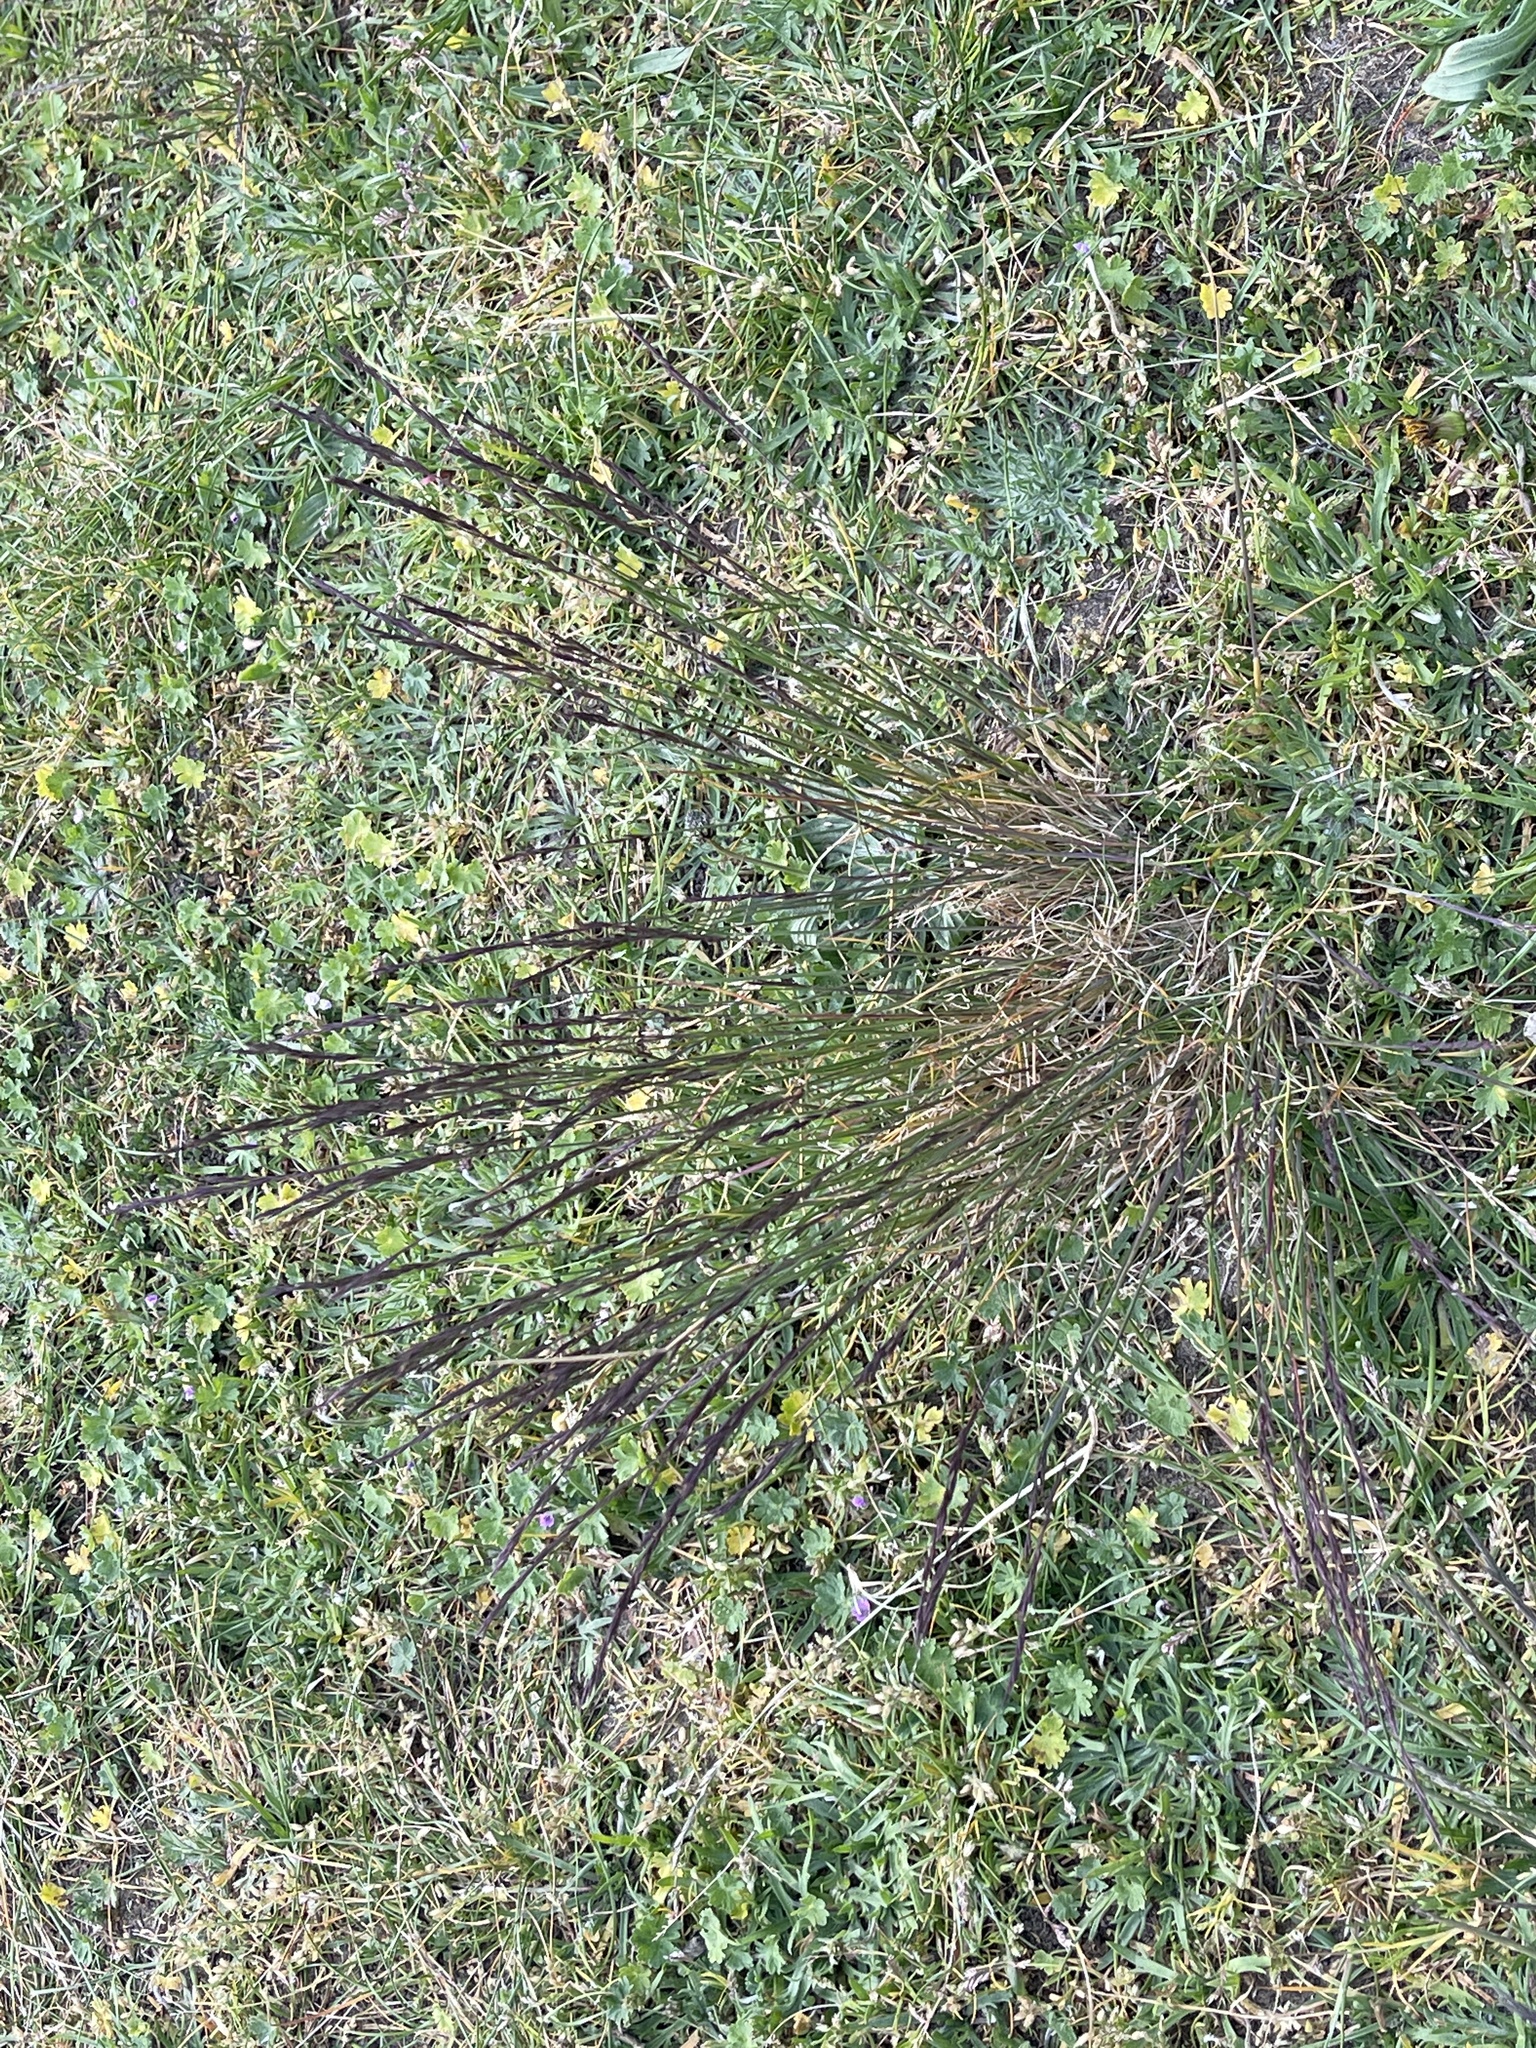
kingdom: Plantae
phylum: Tracheophyta
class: Liliopsida
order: Poales
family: Poaceae
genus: Festuca
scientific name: Festuca rubra
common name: Red fescue
